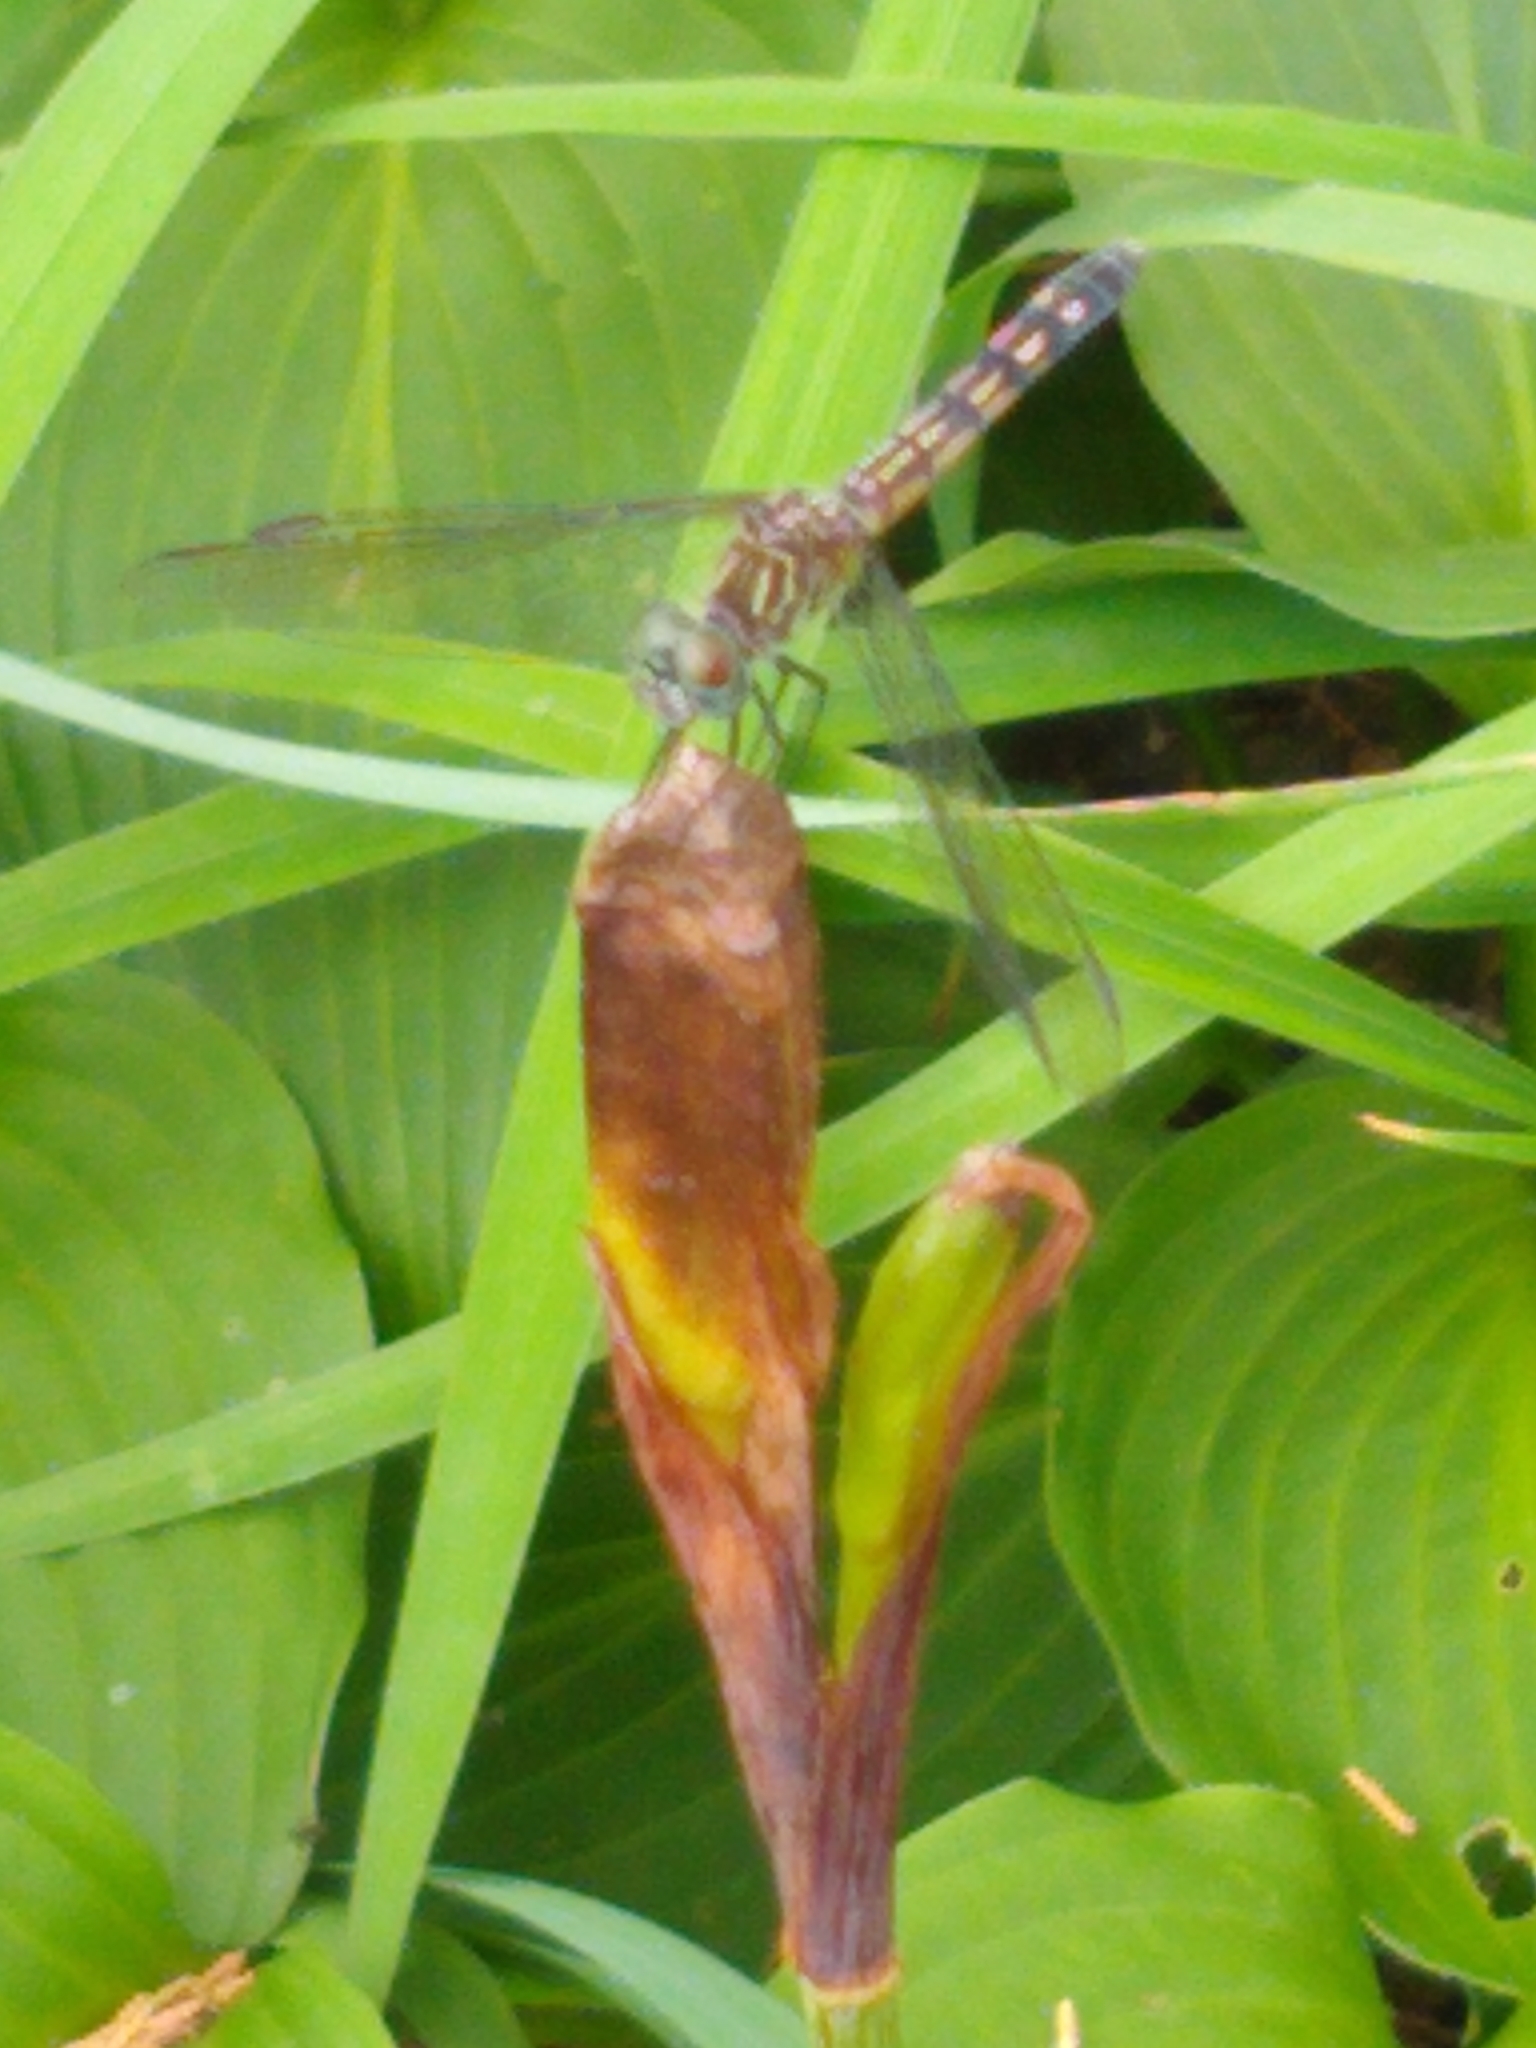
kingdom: Animalia
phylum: Arthropoda
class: Insecta
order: Odonata
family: Libellulidae
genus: Pachydiplax
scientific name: Pachydiplax longipennis
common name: Blue dasher
